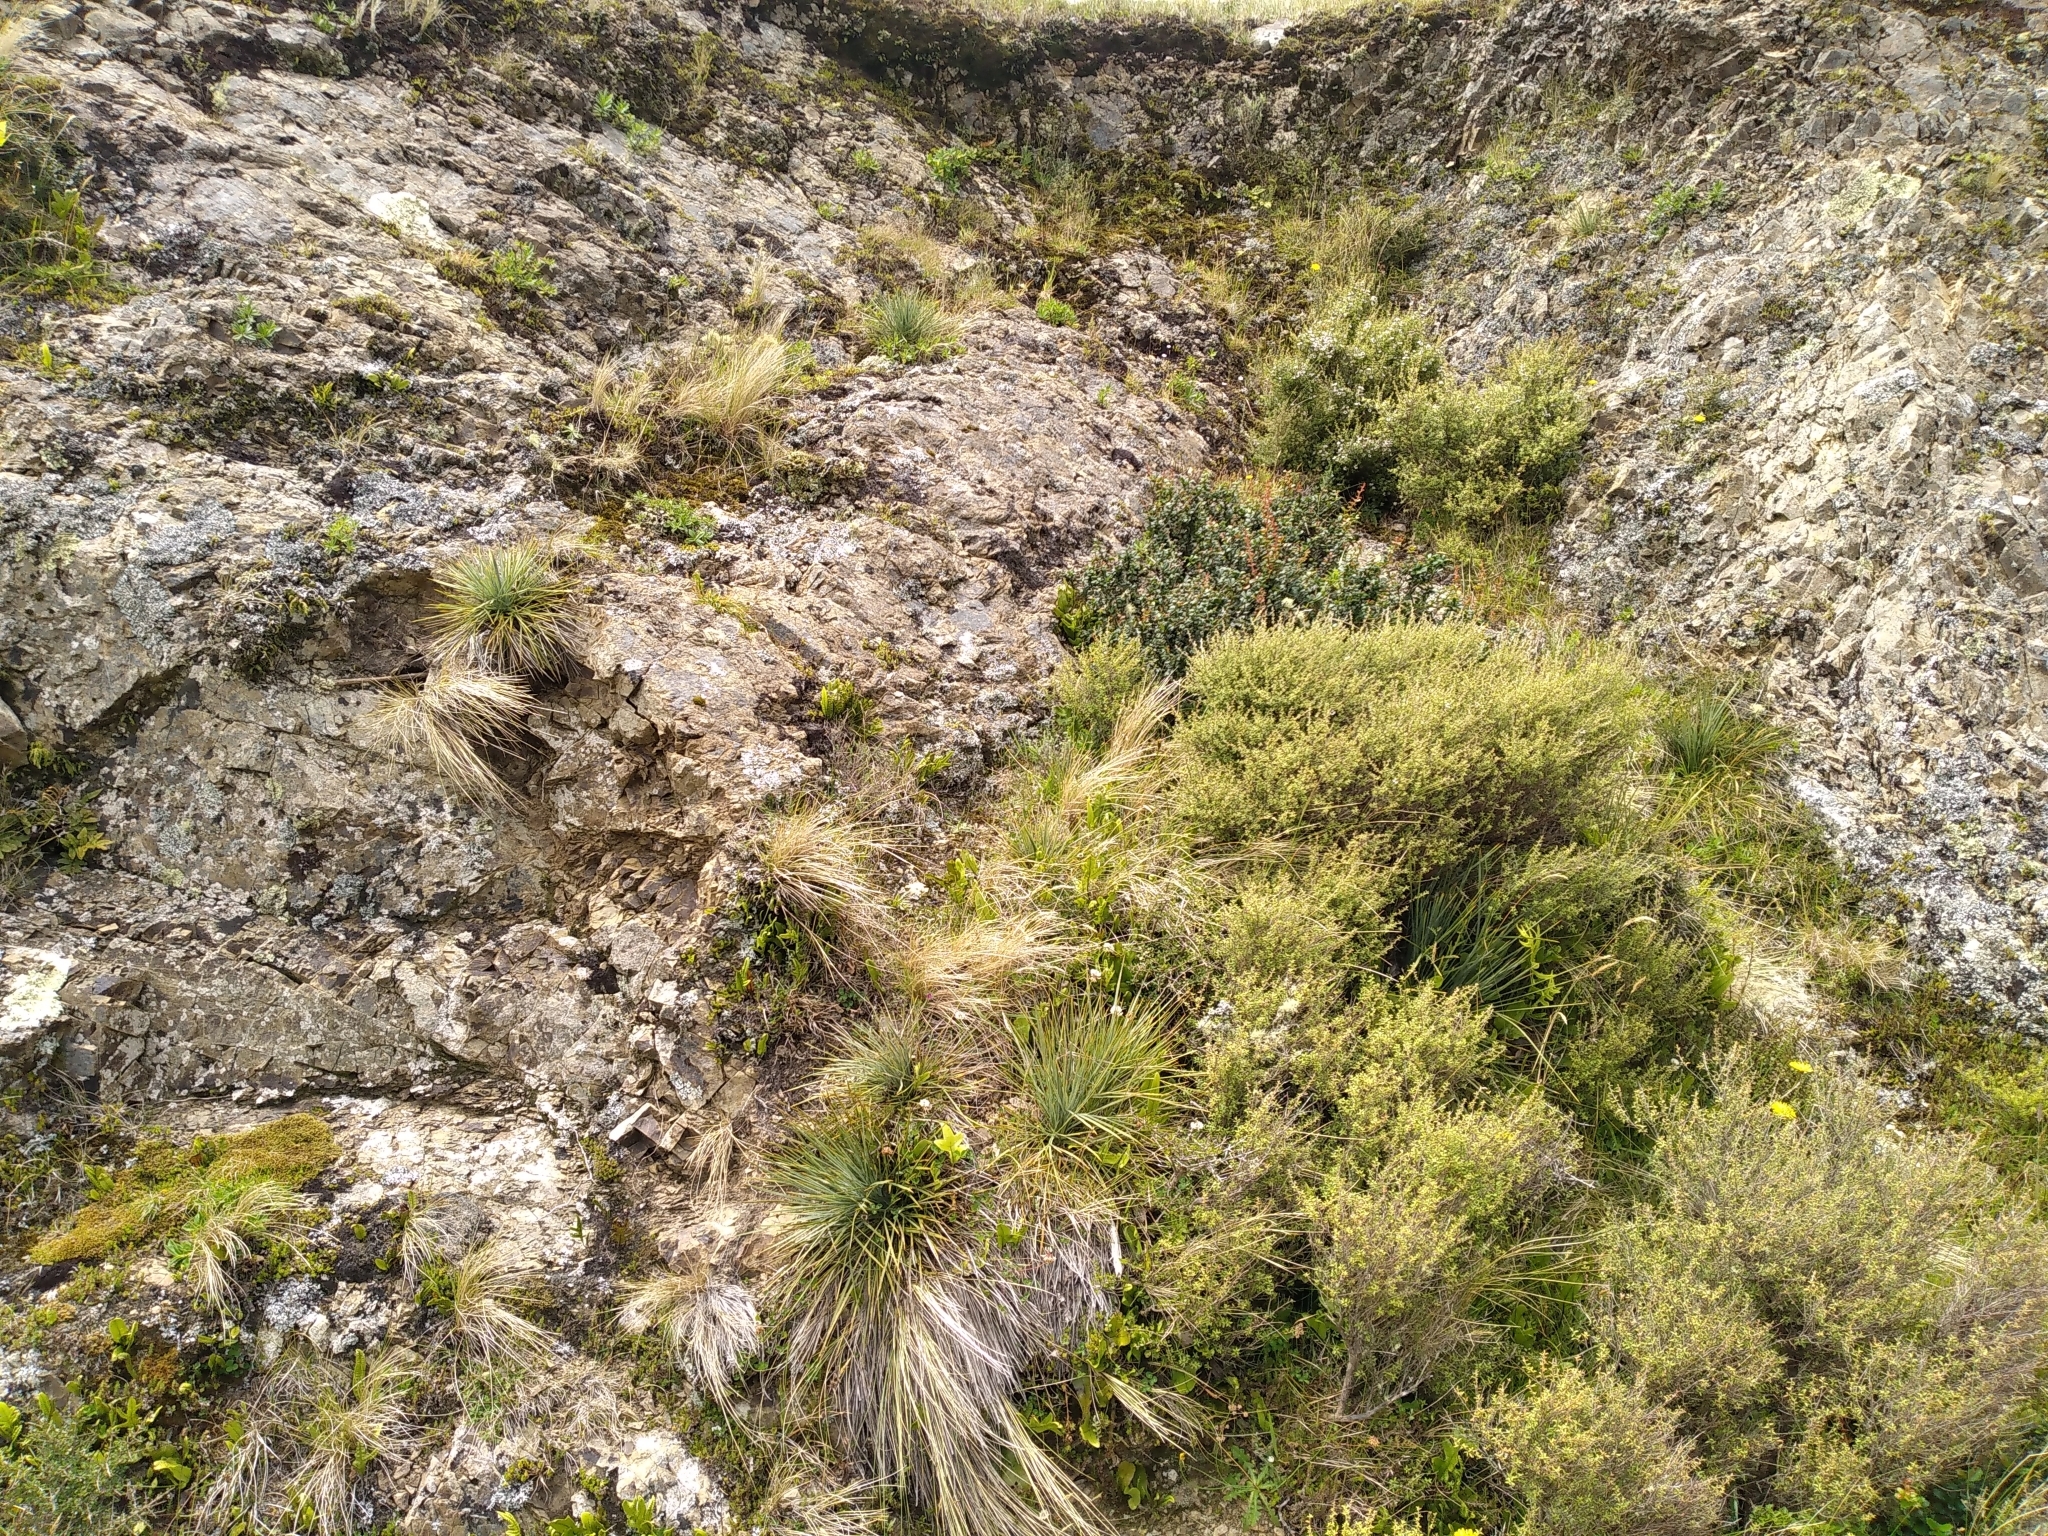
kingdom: Plantae
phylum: Tracheophyta
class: Magnoliopsida
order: Apiales
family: Apiaceae
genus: Aciphylla
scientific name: Aciphylla squarrosa
